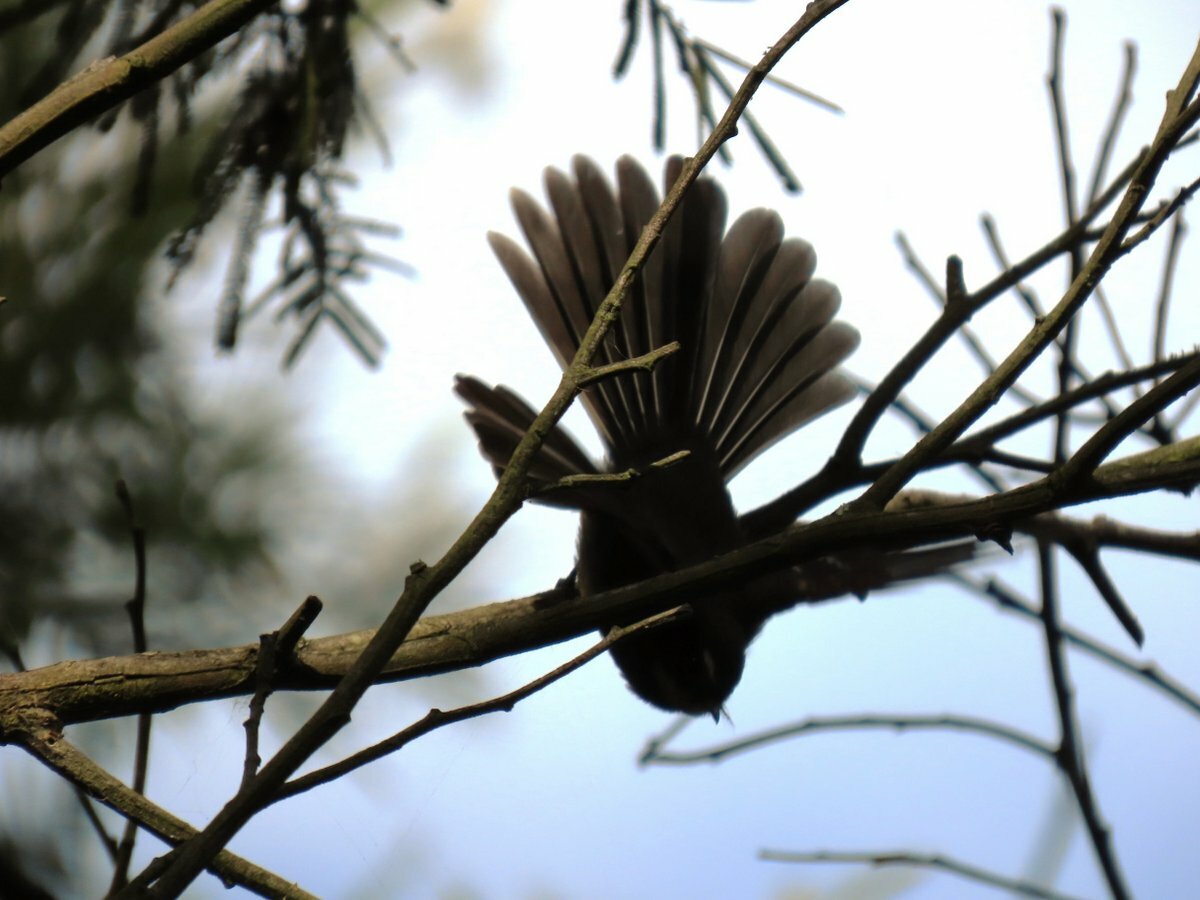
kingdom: Animalia
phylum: Chordata
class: Aves
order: Passeriformes
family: Rhipiduridae
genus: Rhipidura
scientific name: Rhipidura albiscapa
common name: Grey fantail
